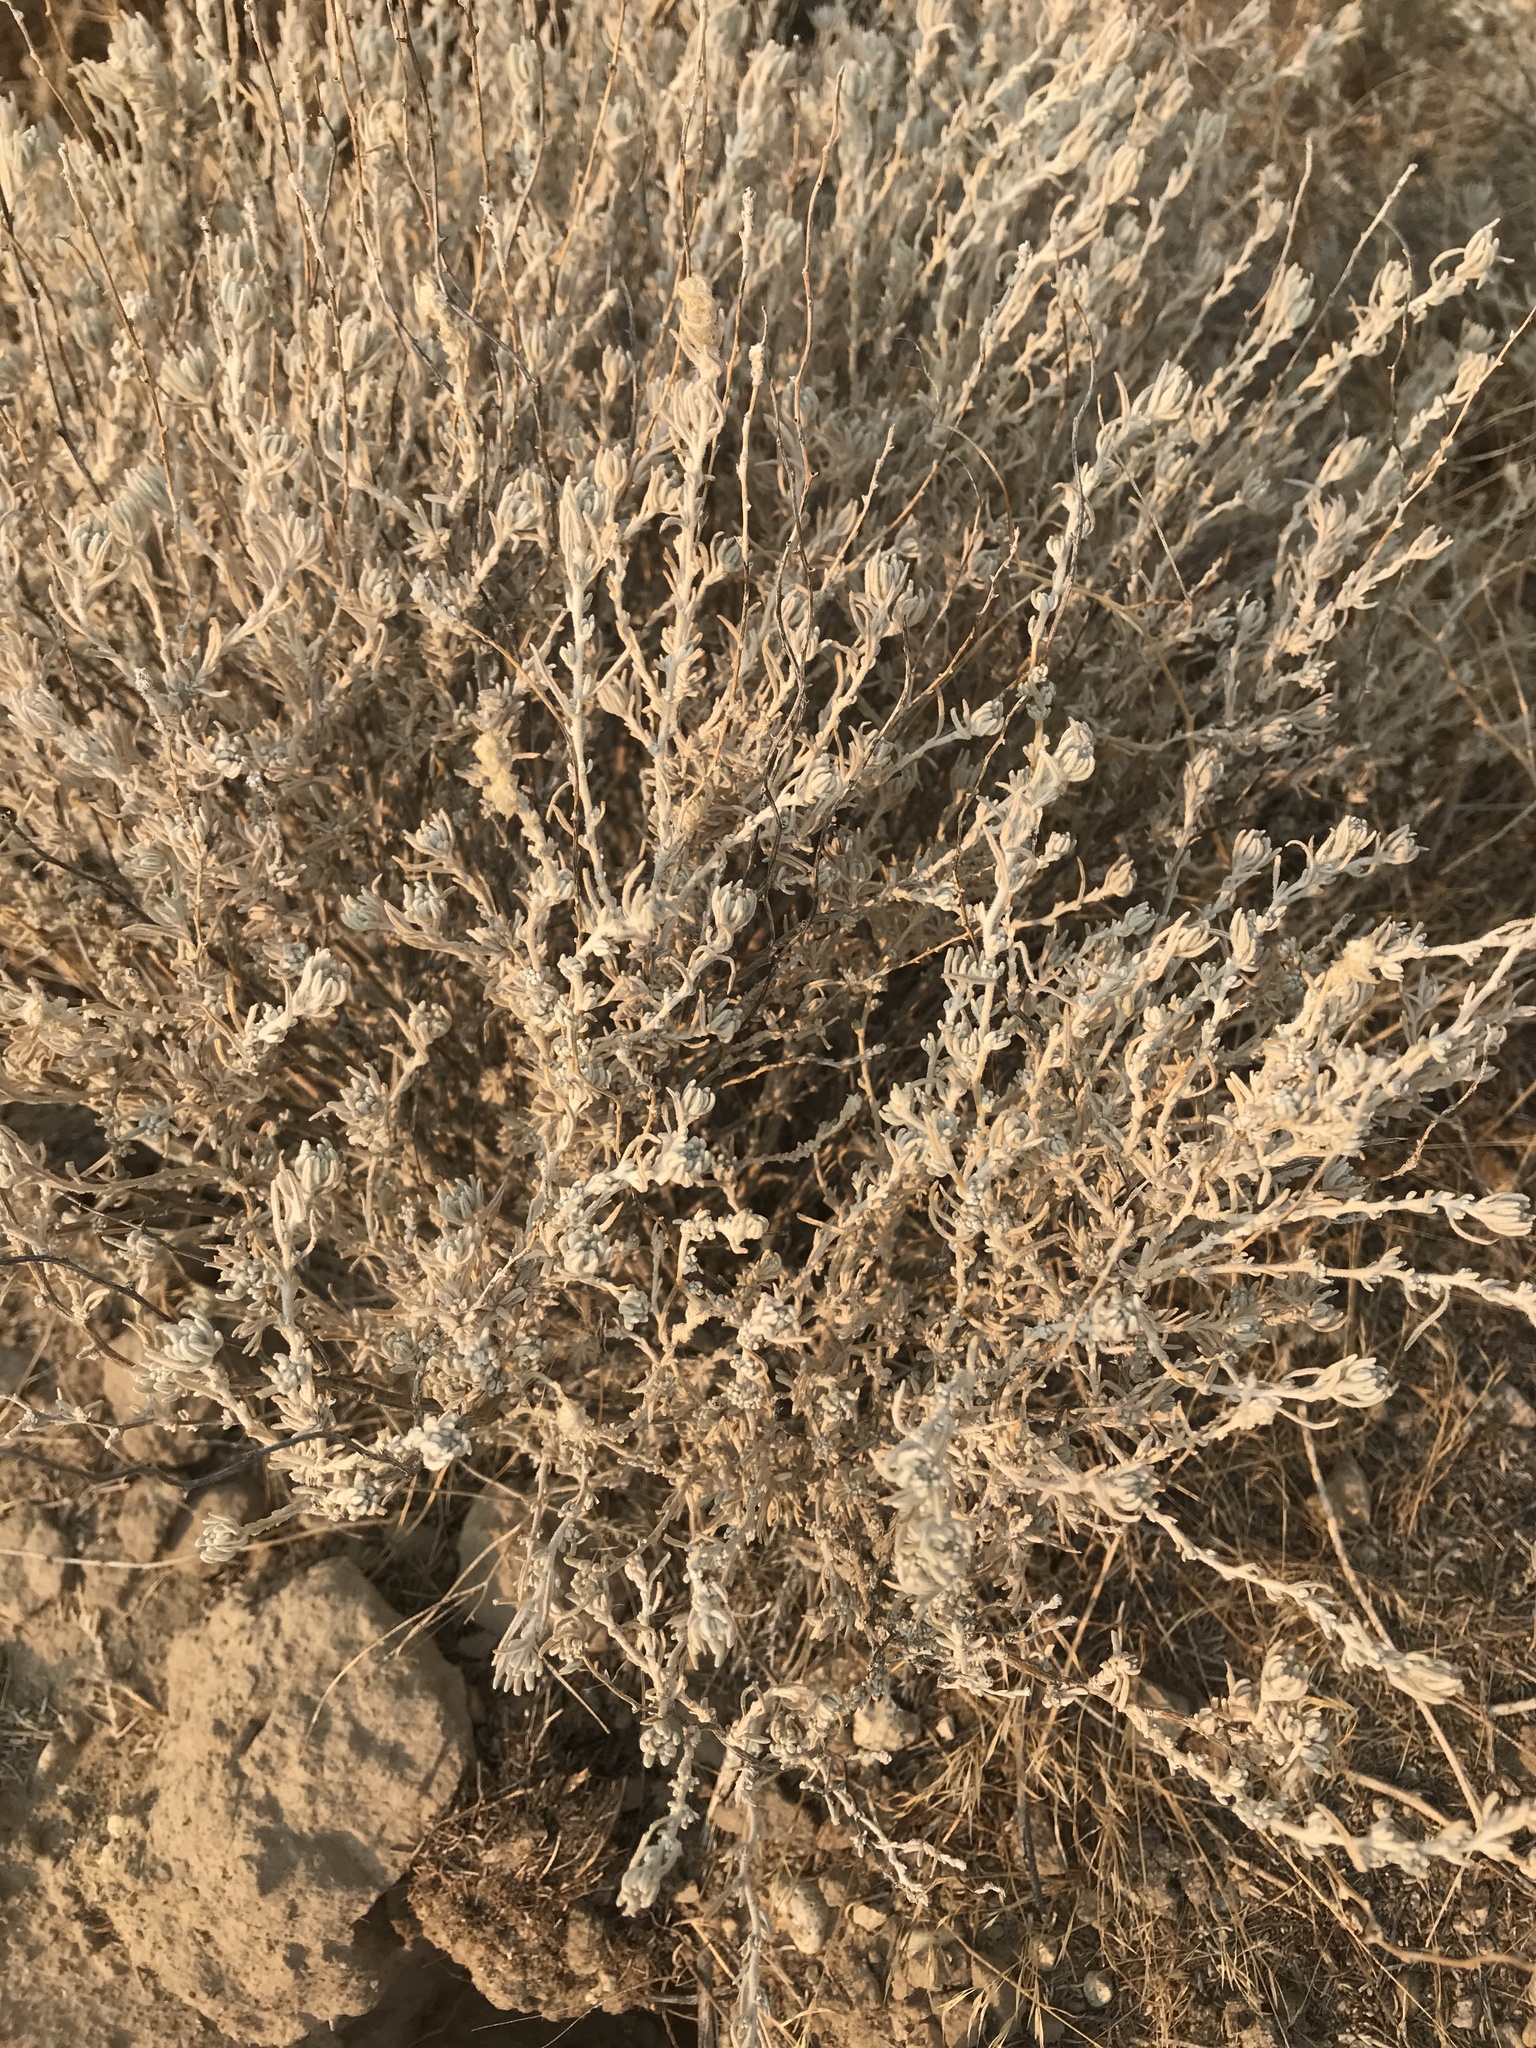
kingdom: Plantae
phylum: Tracheophyta
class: Magnoliopsida
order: Caryophyllales
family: Amaranthaceae
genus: Krascheninnikovia
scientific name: Krascheninnikovia lanata
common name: Winterfat
